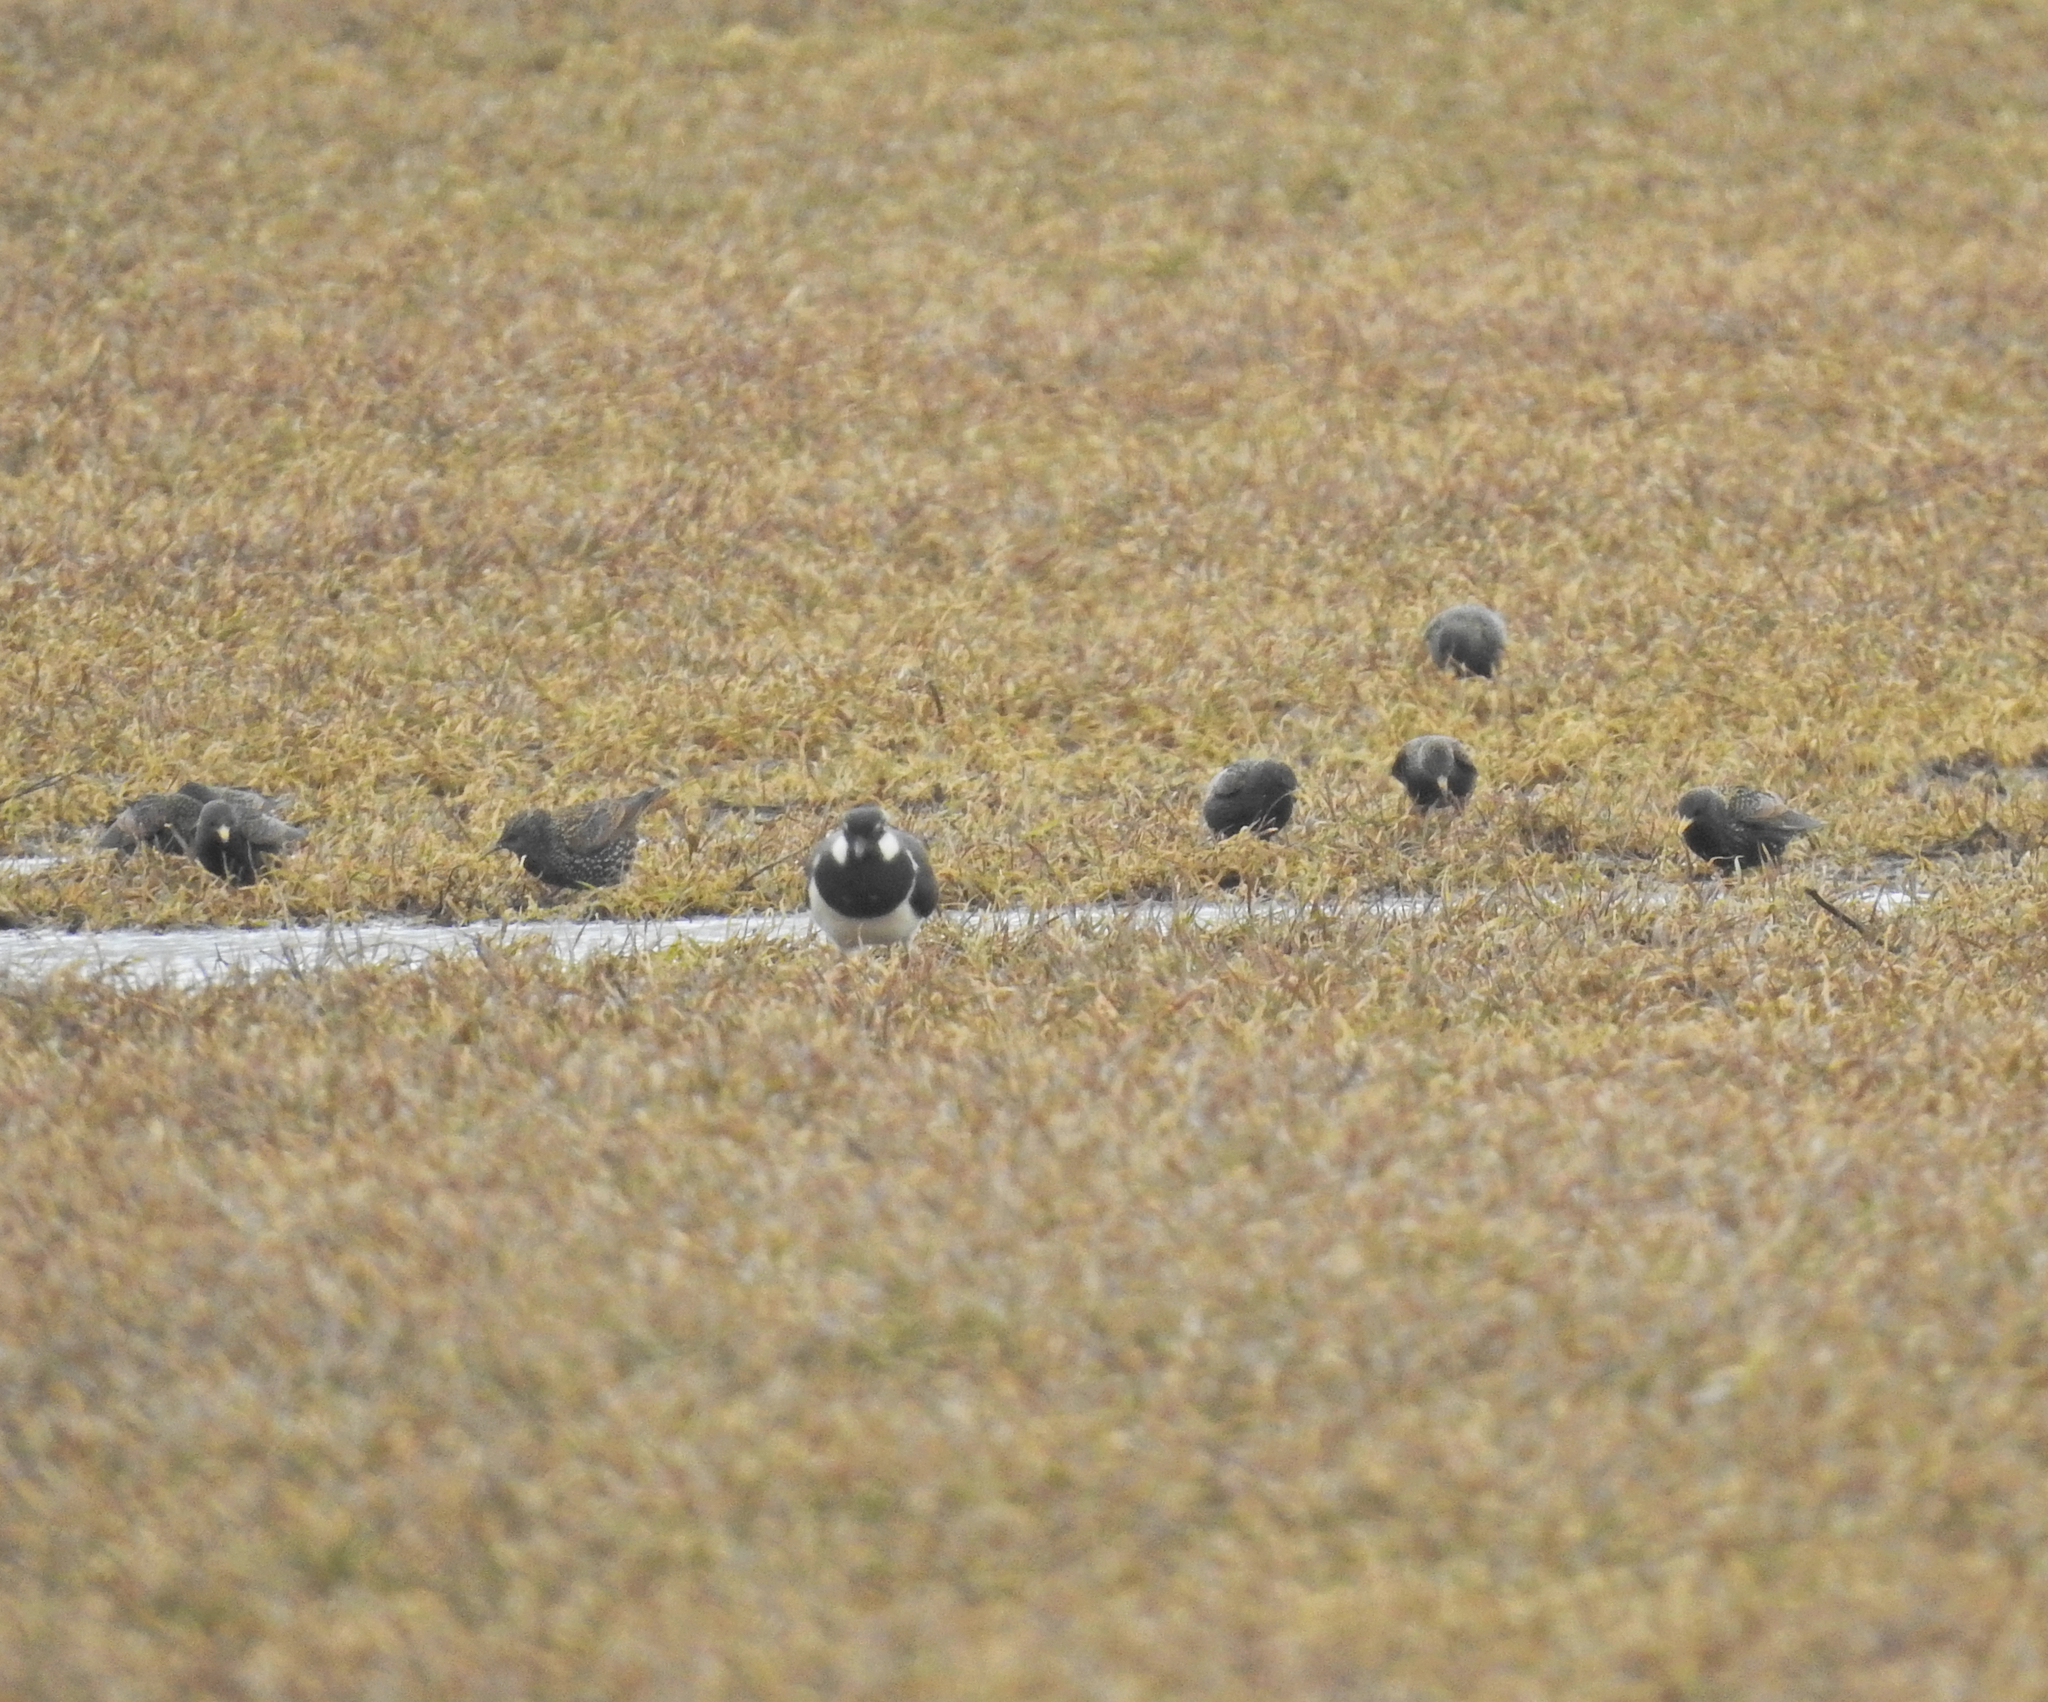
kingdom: Animalia
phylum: Chordata
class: Aves
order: Charadriiformes
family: Charadriidae
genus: Vanellus
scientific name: Vanellus vanellus
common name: Northern lapwing
